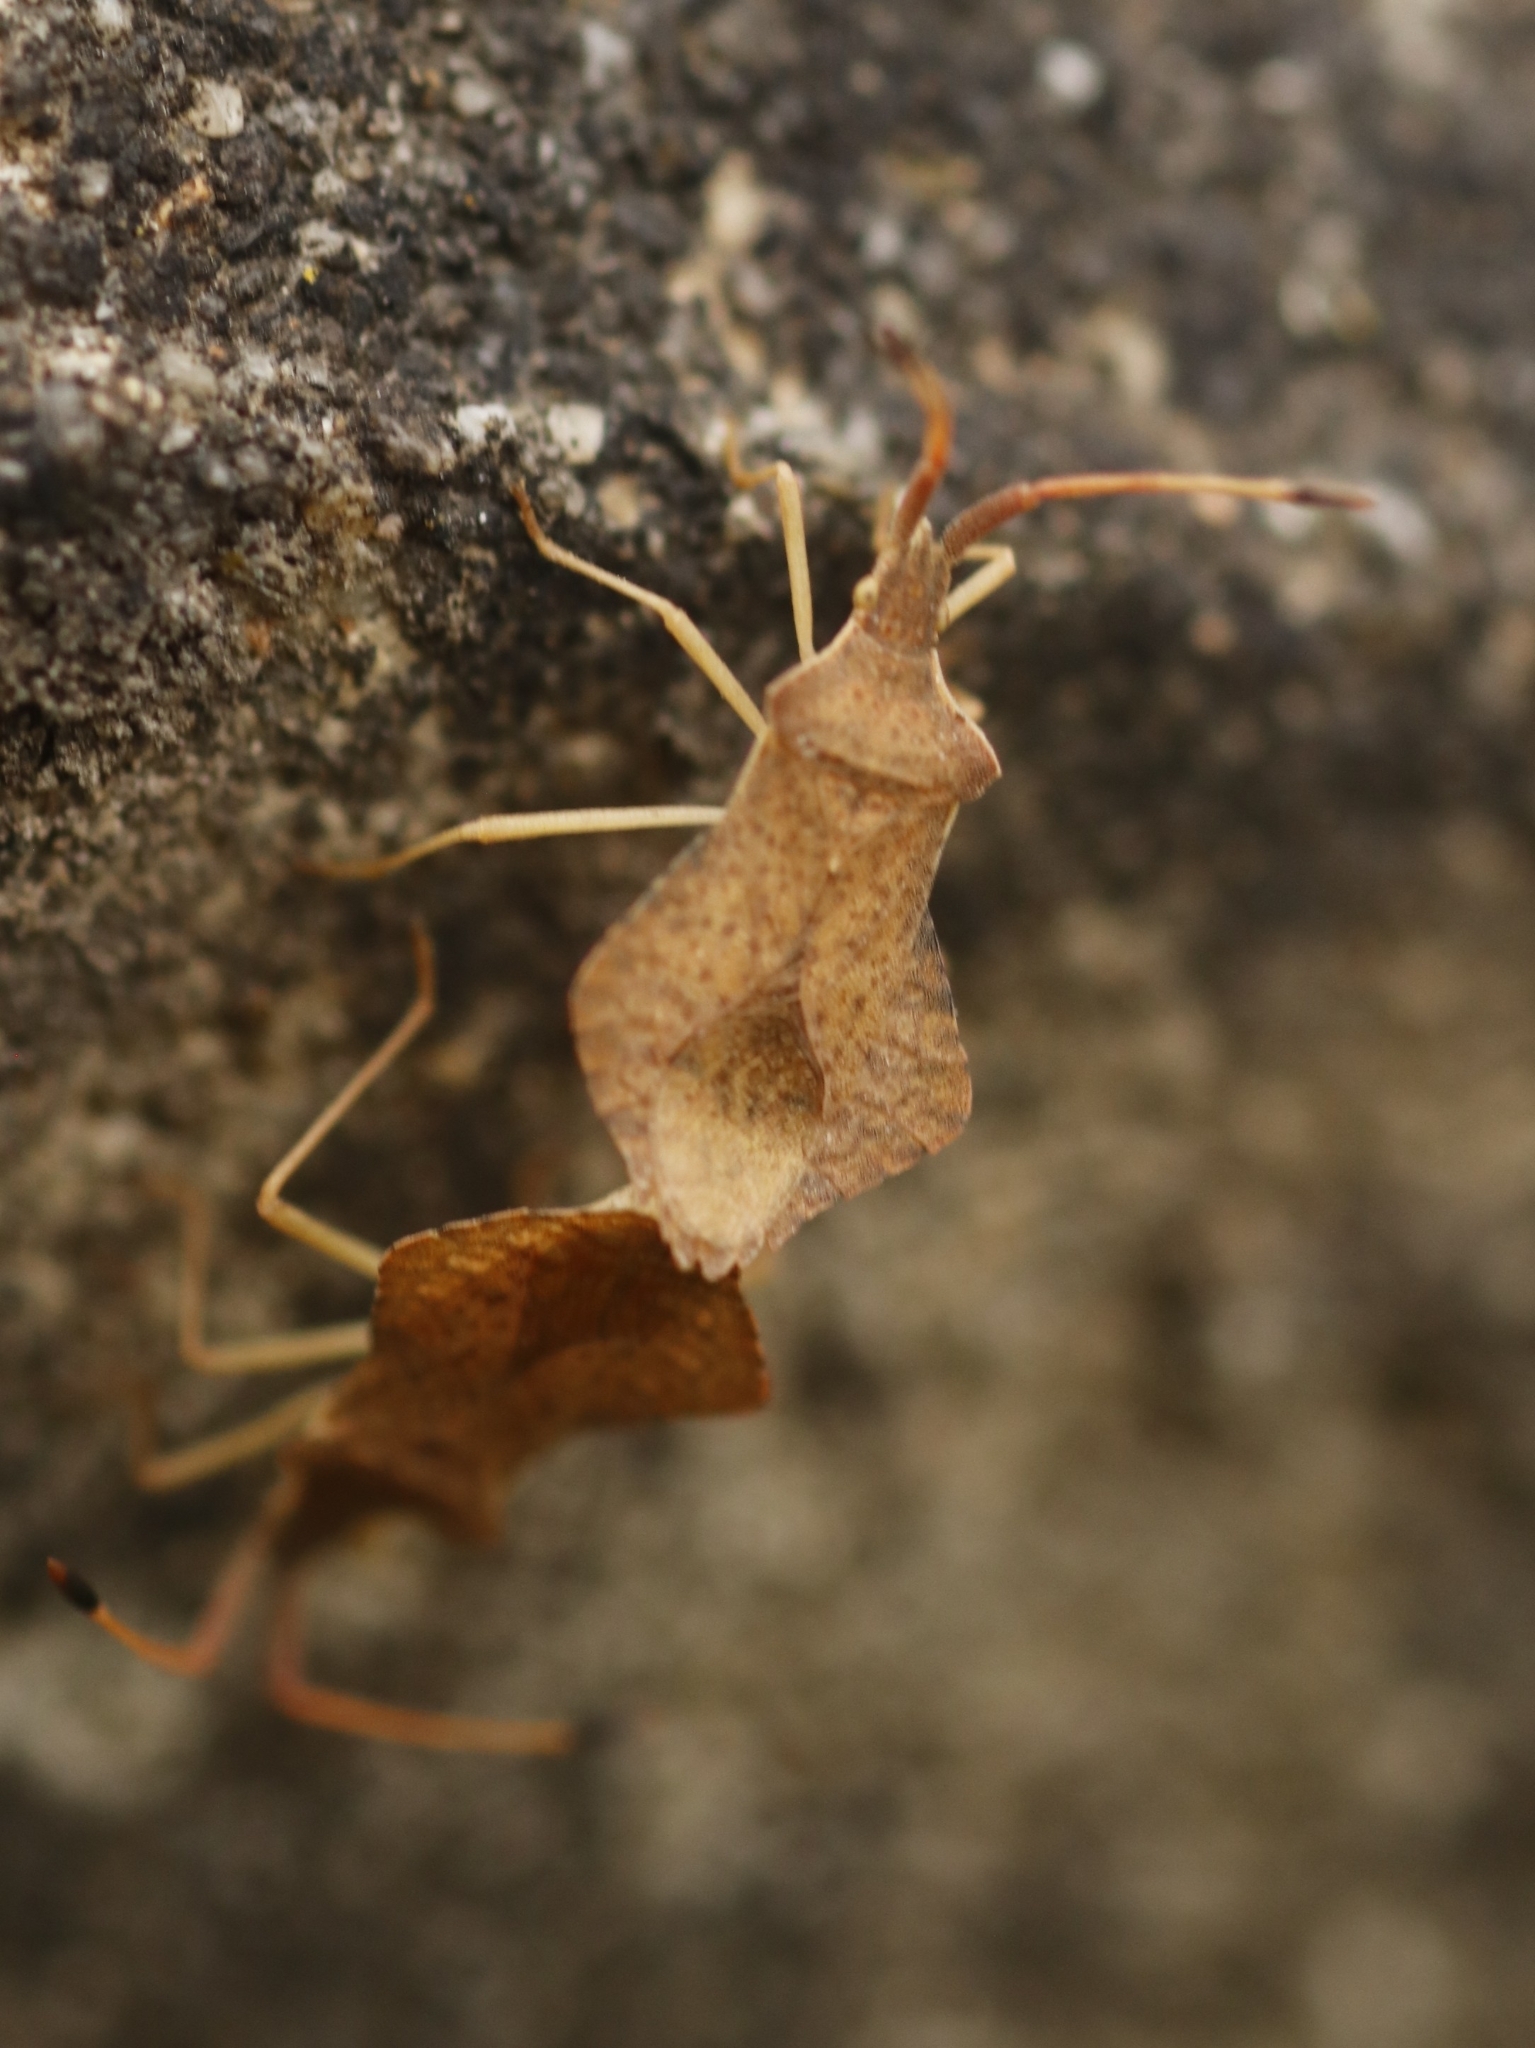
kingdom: Animalia
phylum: Arthropoda
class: Insecta
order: Hemiptera
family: Coreidae
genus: Syromastus
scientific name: Syromastus rhombeus
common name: Rhombic leatherbug
